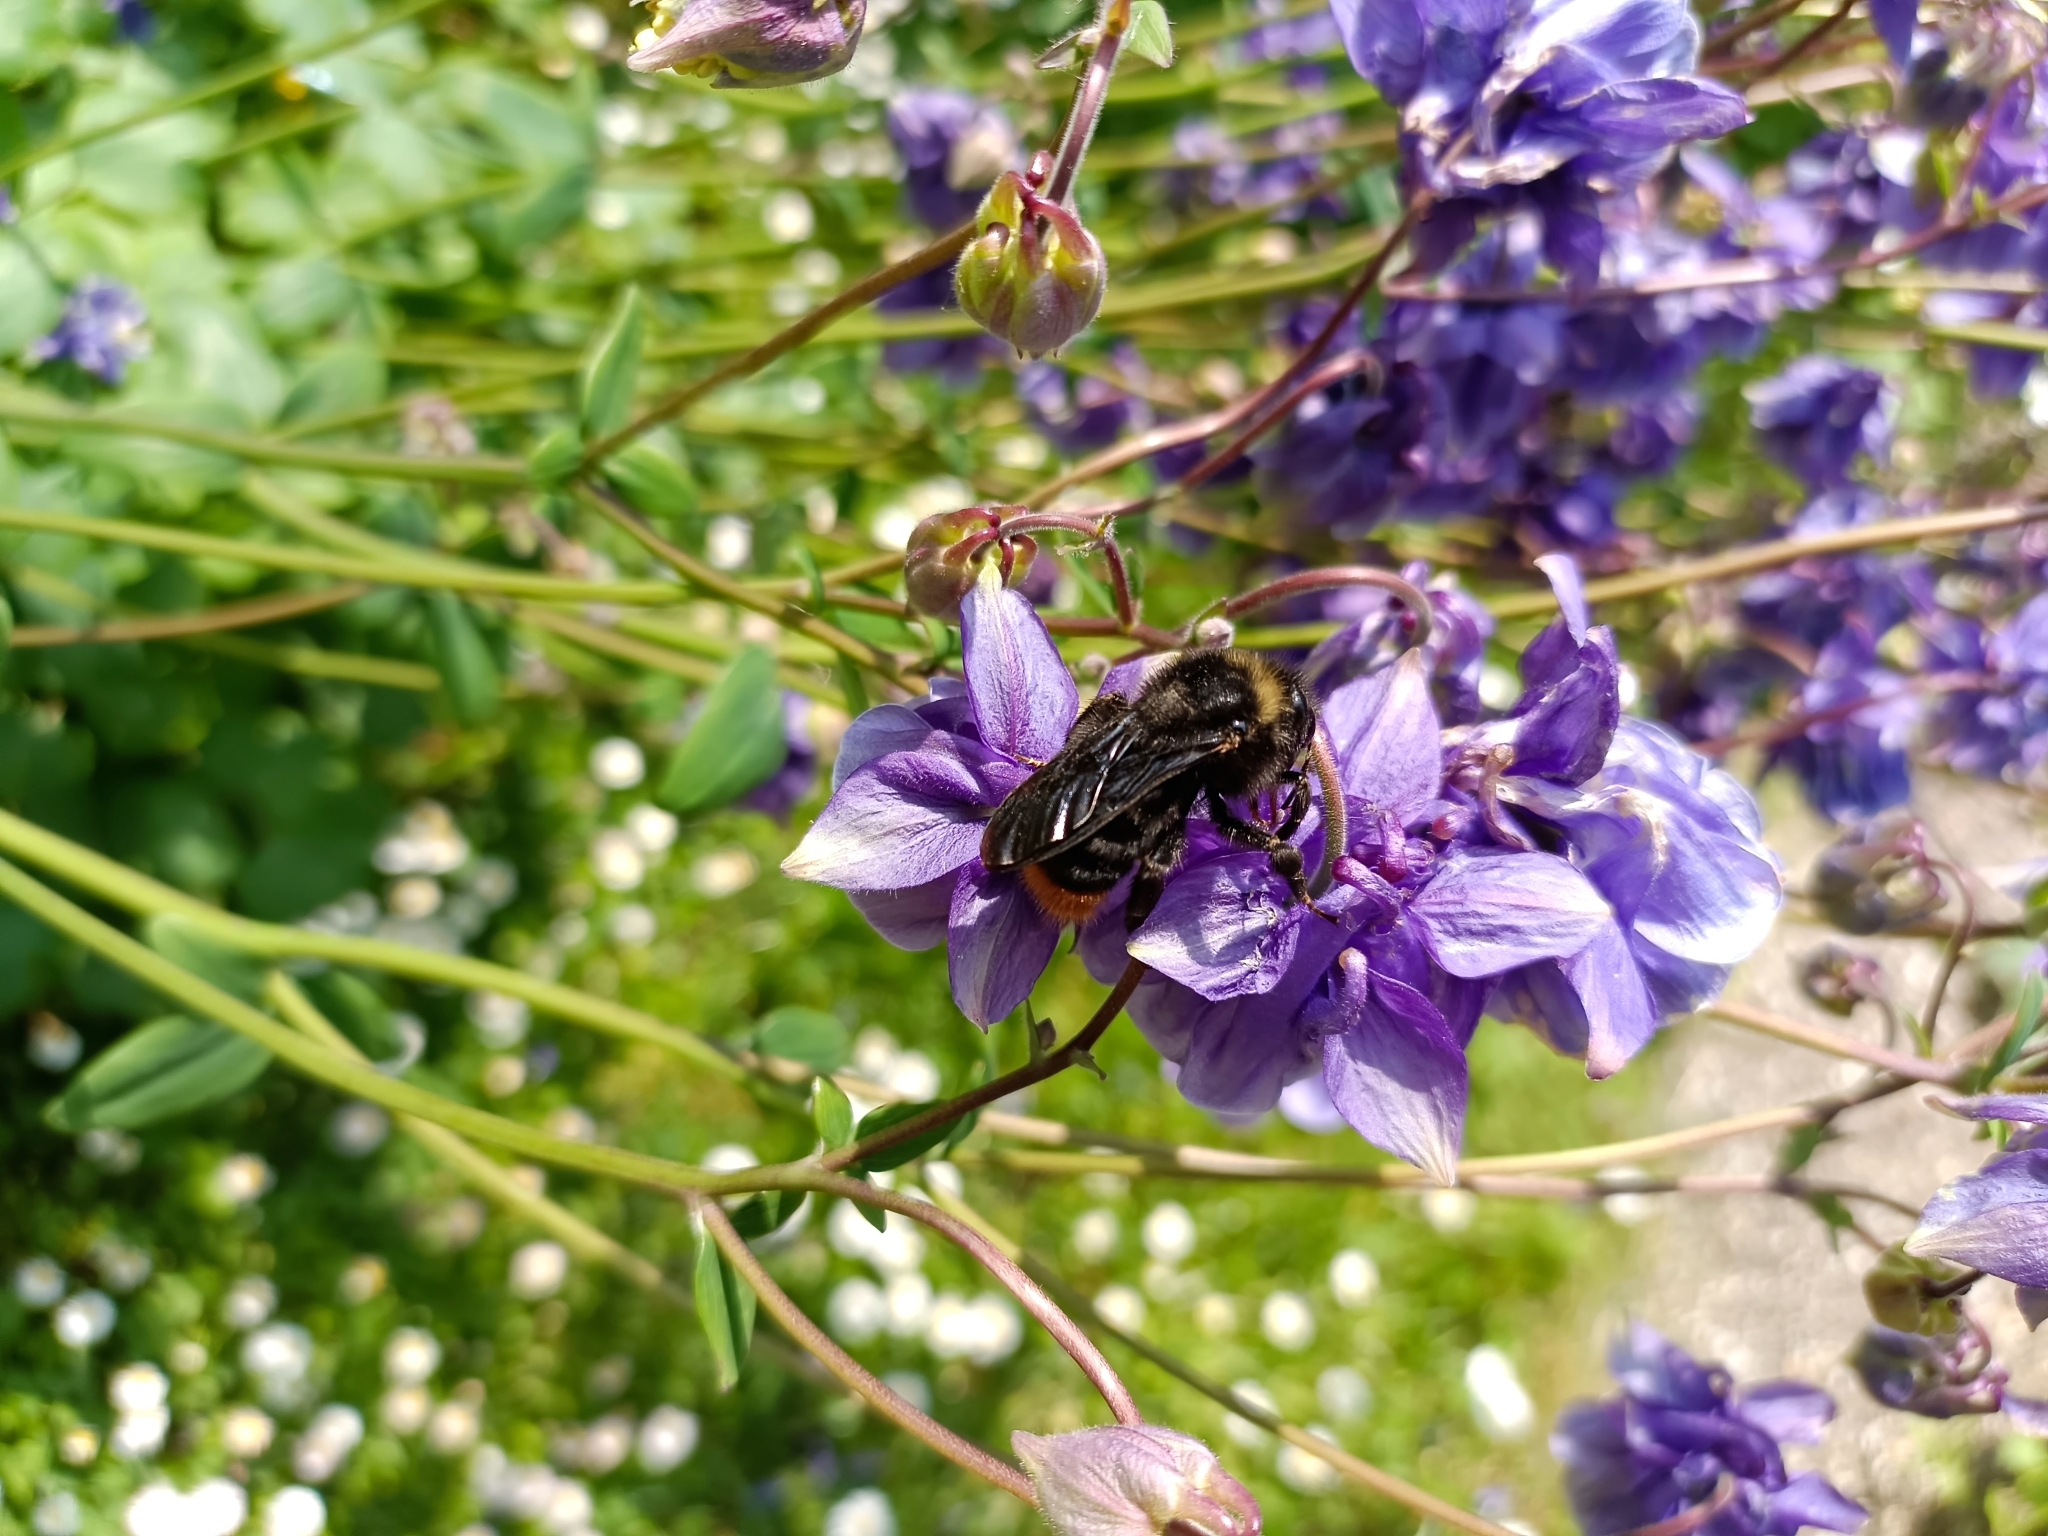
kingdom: Animalia
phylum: Arthropoda
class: Insecta
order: Hymenoptera
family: Apidae
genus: Bombus
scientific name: Bombus rupestris
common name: Hill cuckoo-bee
